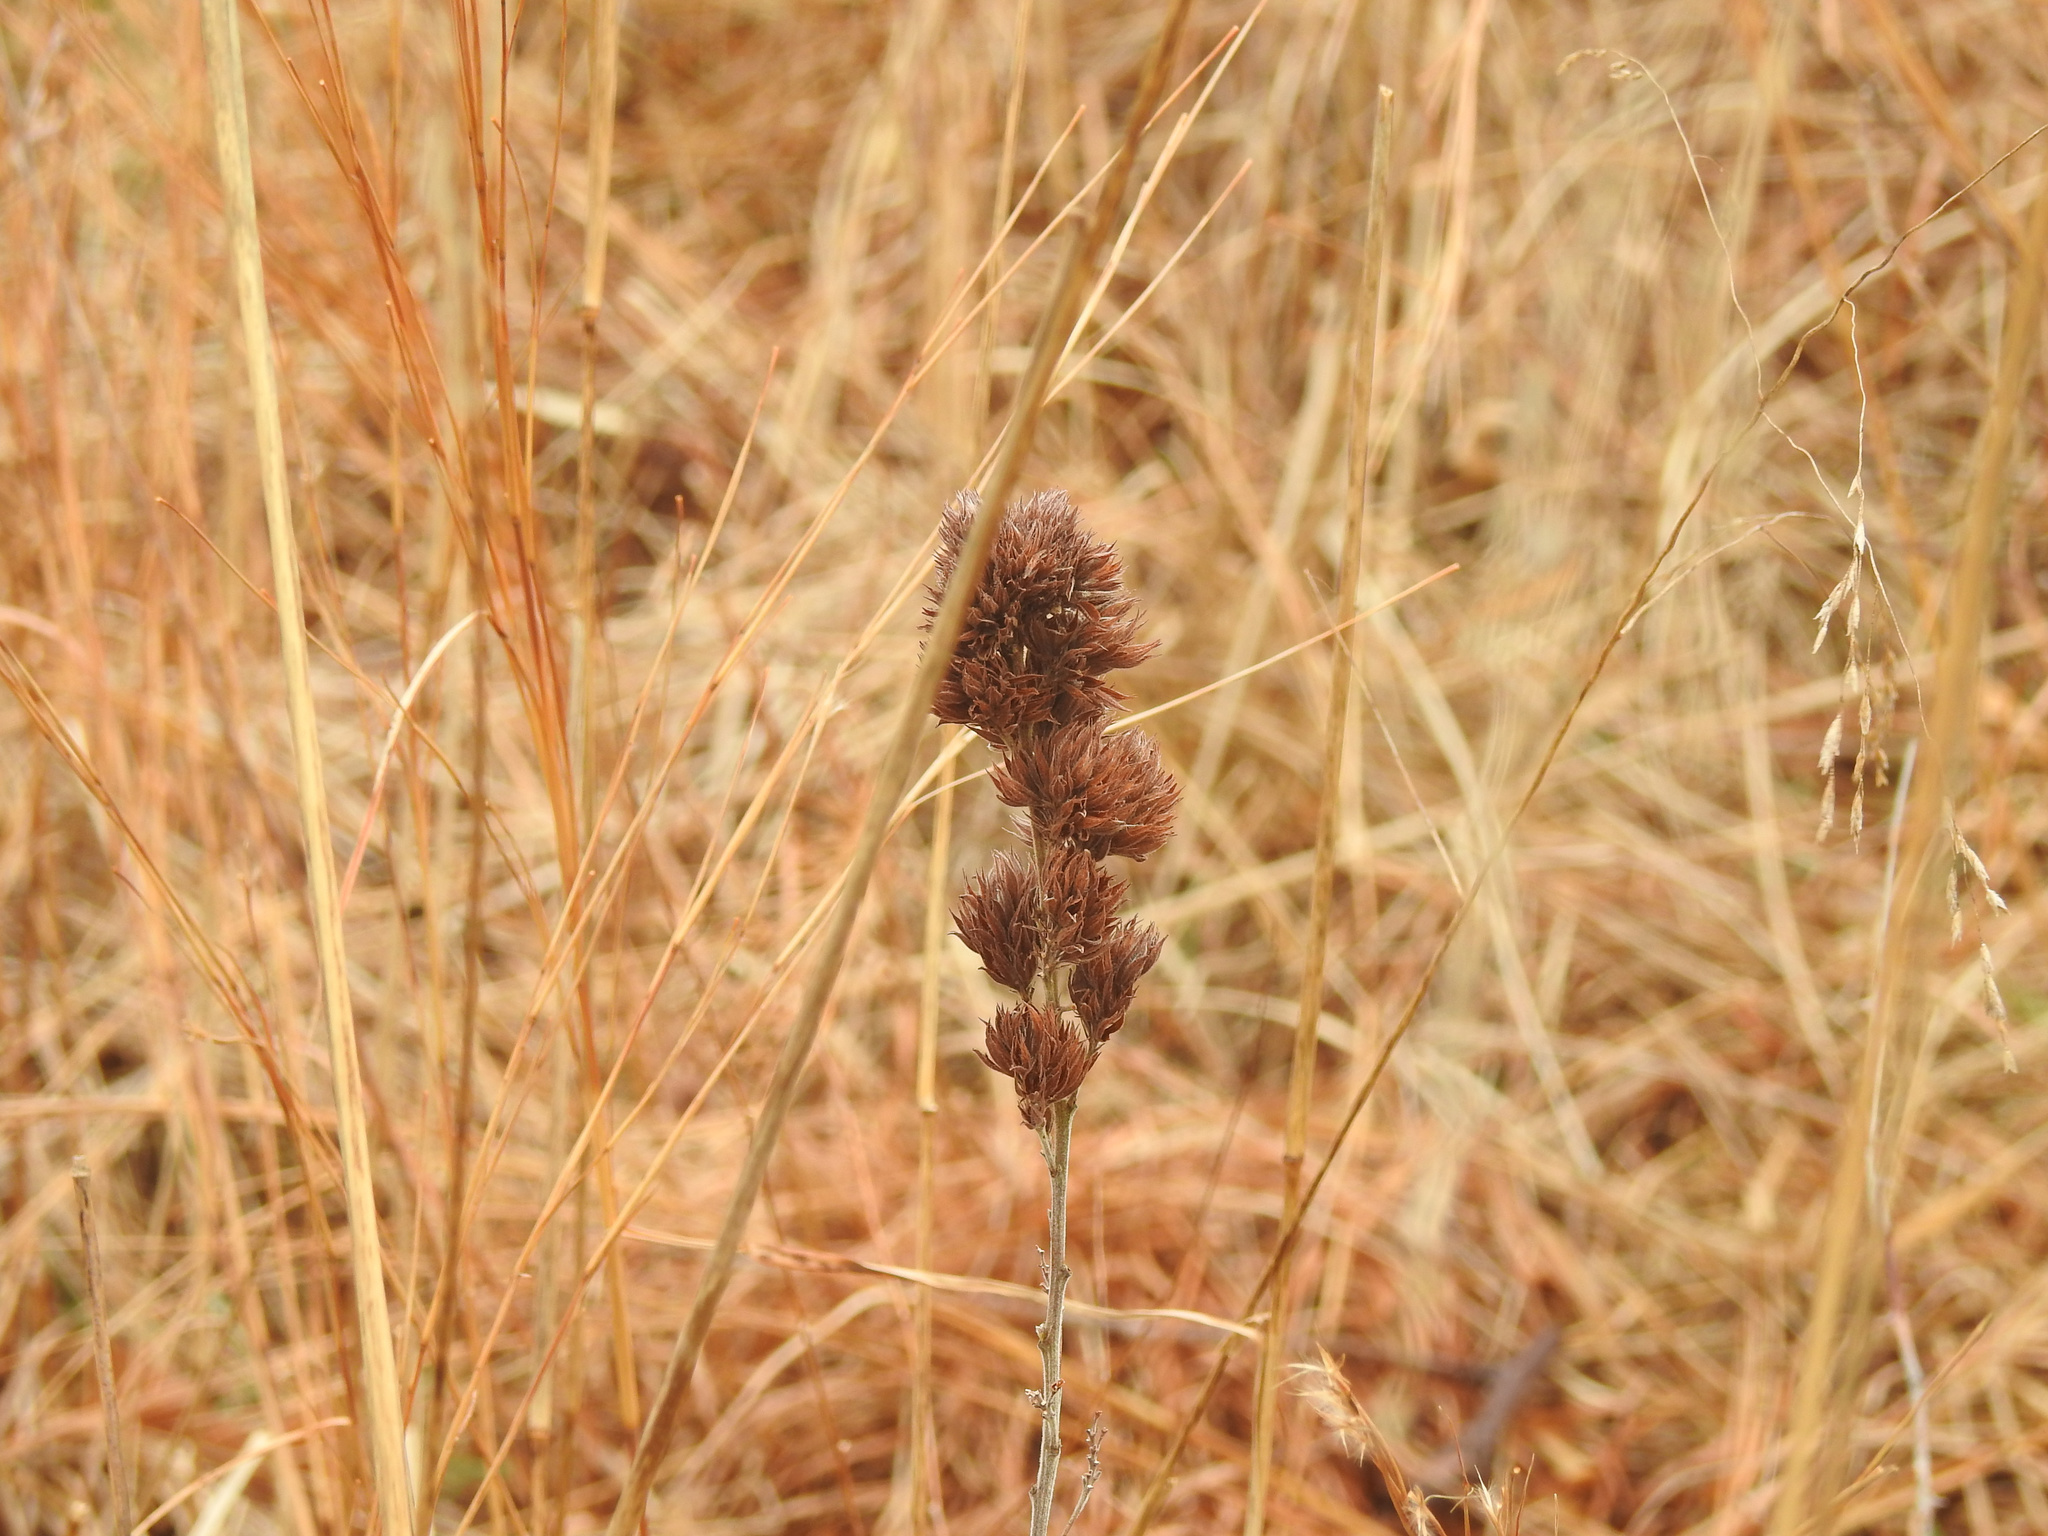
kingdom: Plantae
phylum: Tracheophyta
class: Magnoliopsida
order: Fabales
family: Fabaceae
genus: Lespedeza
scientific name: Lespedeza capitata
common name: Dusty clover
